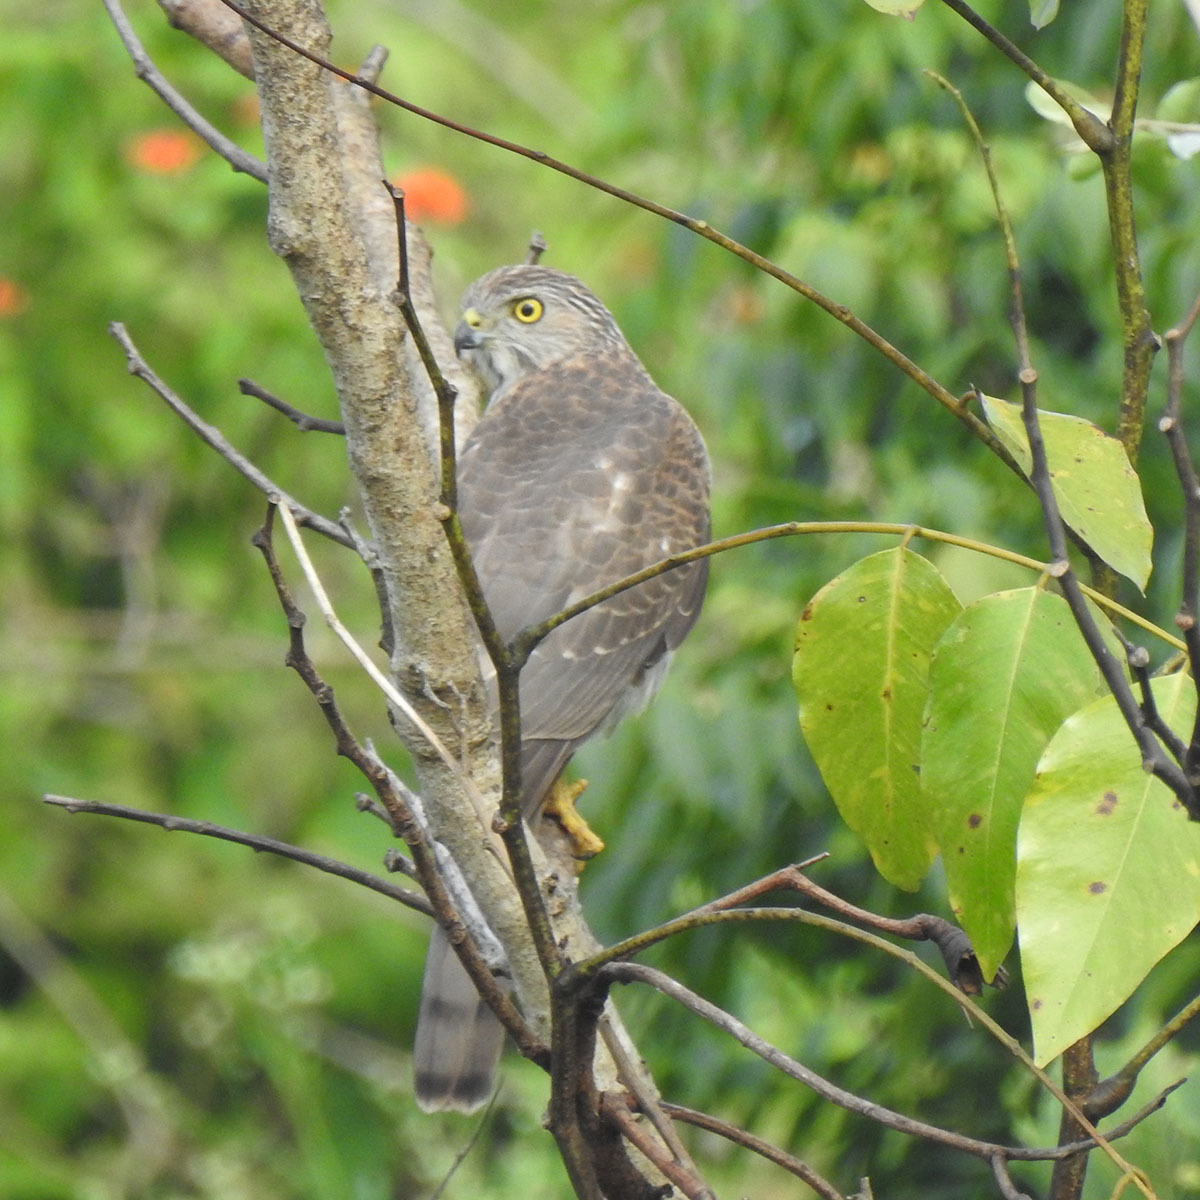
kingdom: Animalia
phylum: Chordata
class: Aves
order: Accipitriformes
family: Accipitridae
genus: Accipiter
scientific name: Accipiter badius
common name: Shikra
